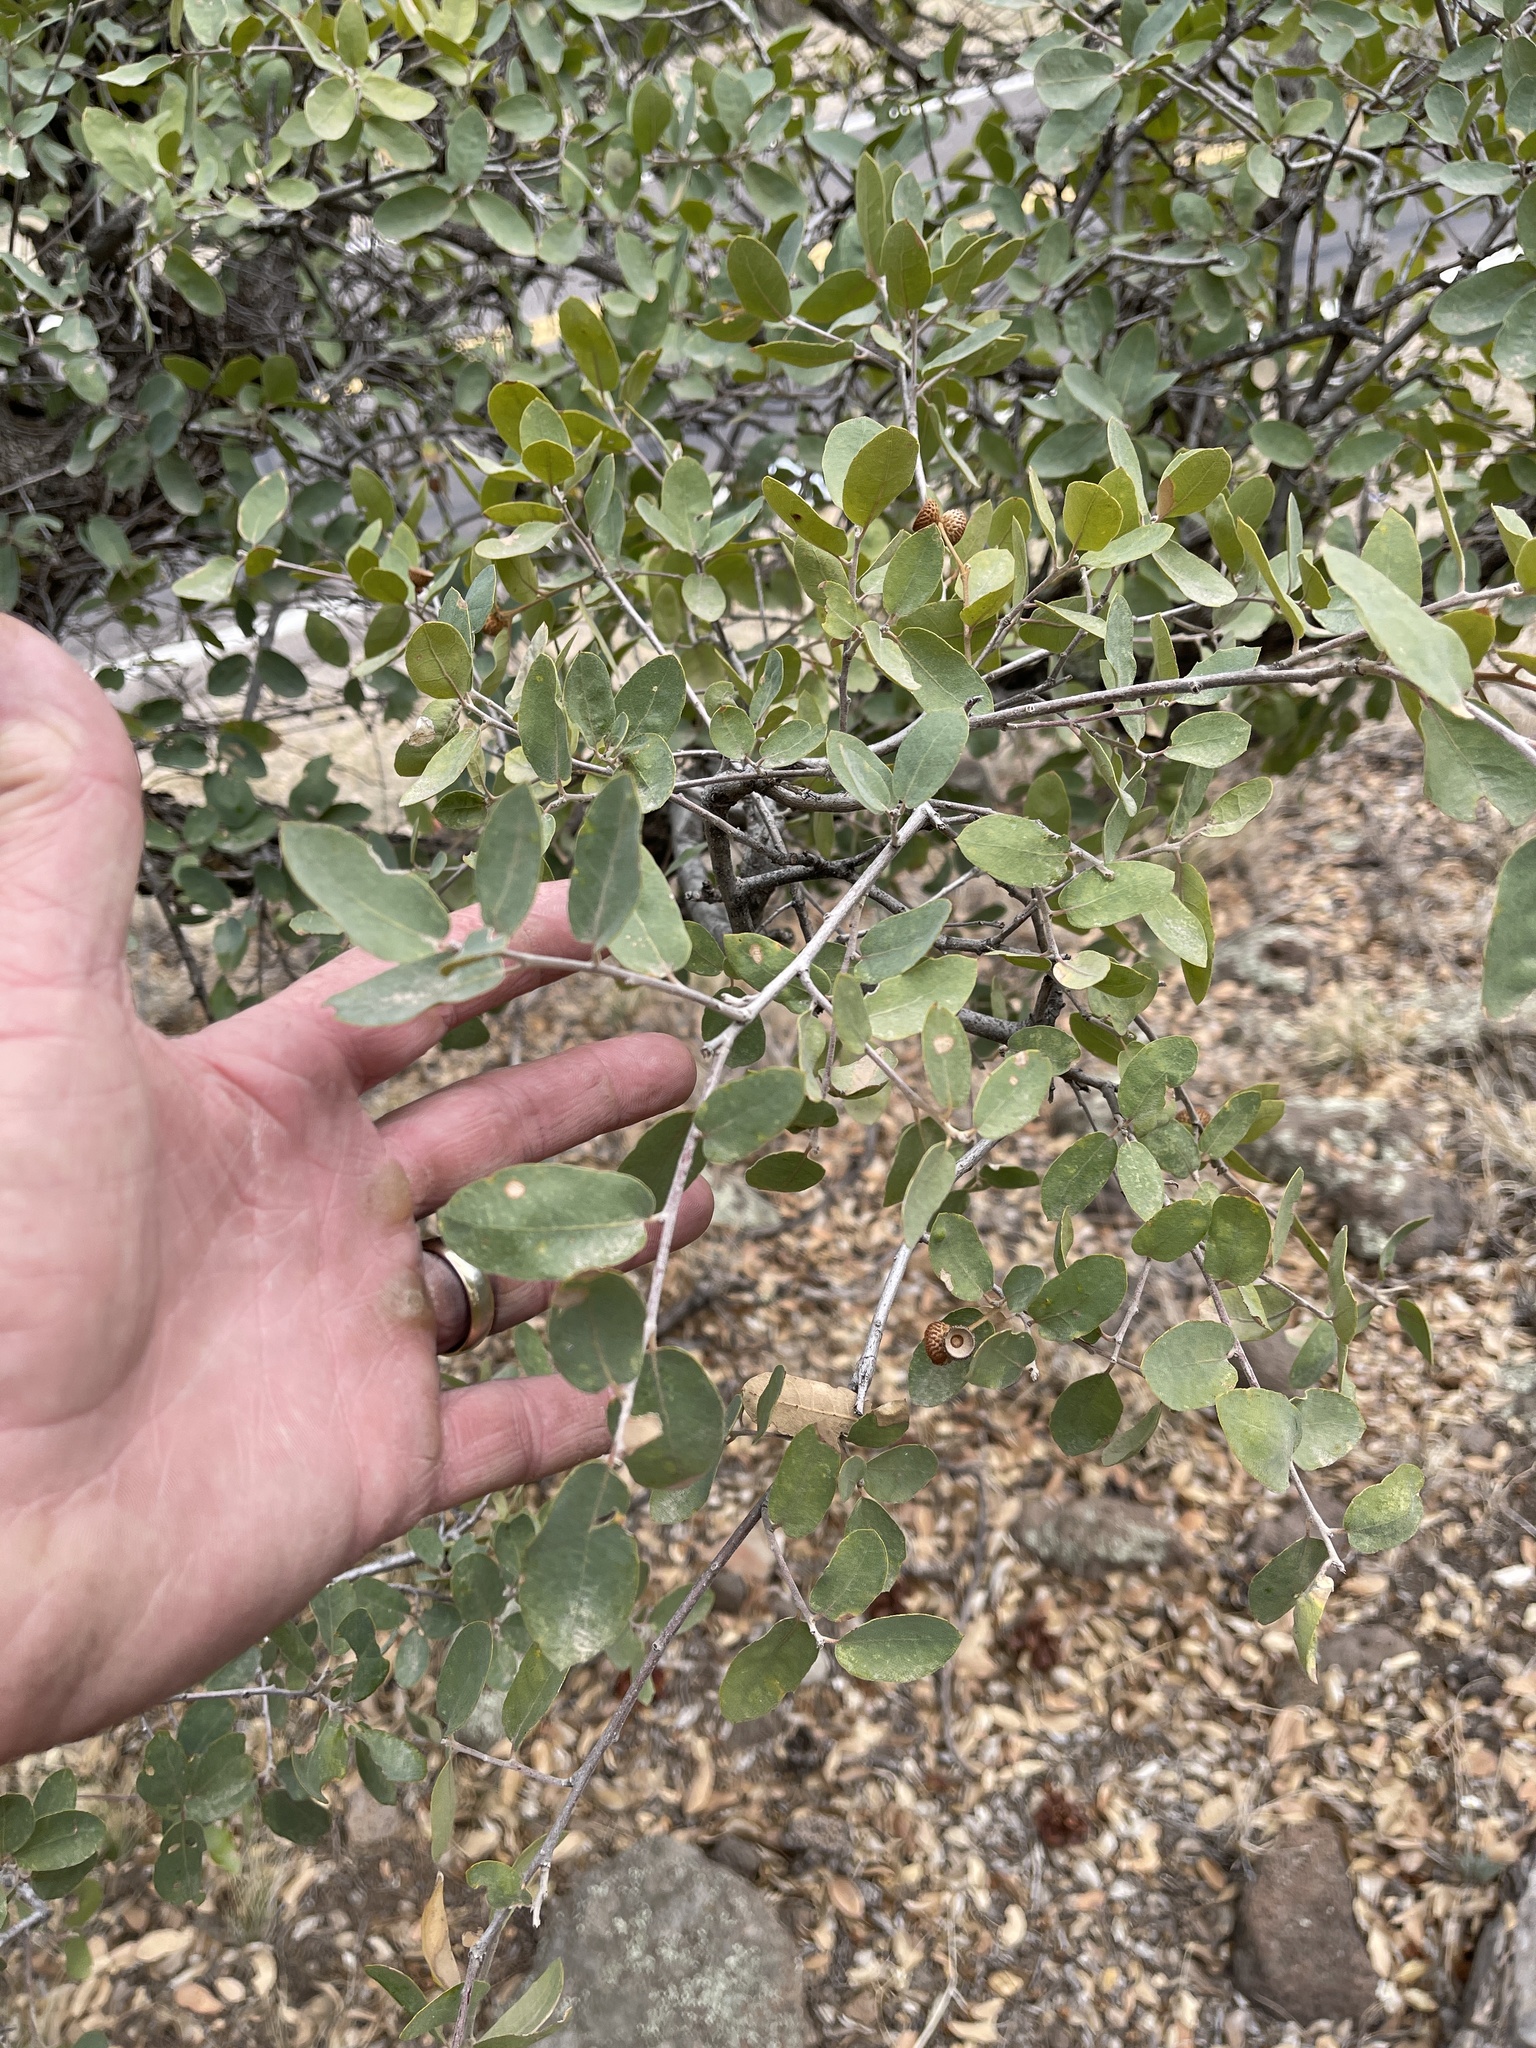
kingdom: Plantae
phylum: Tracheophyta
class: Magnoliopsida
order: Fagales
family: Fagaceae
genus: Quercus
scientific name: Quercus arizonica
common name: Arizona white oak
